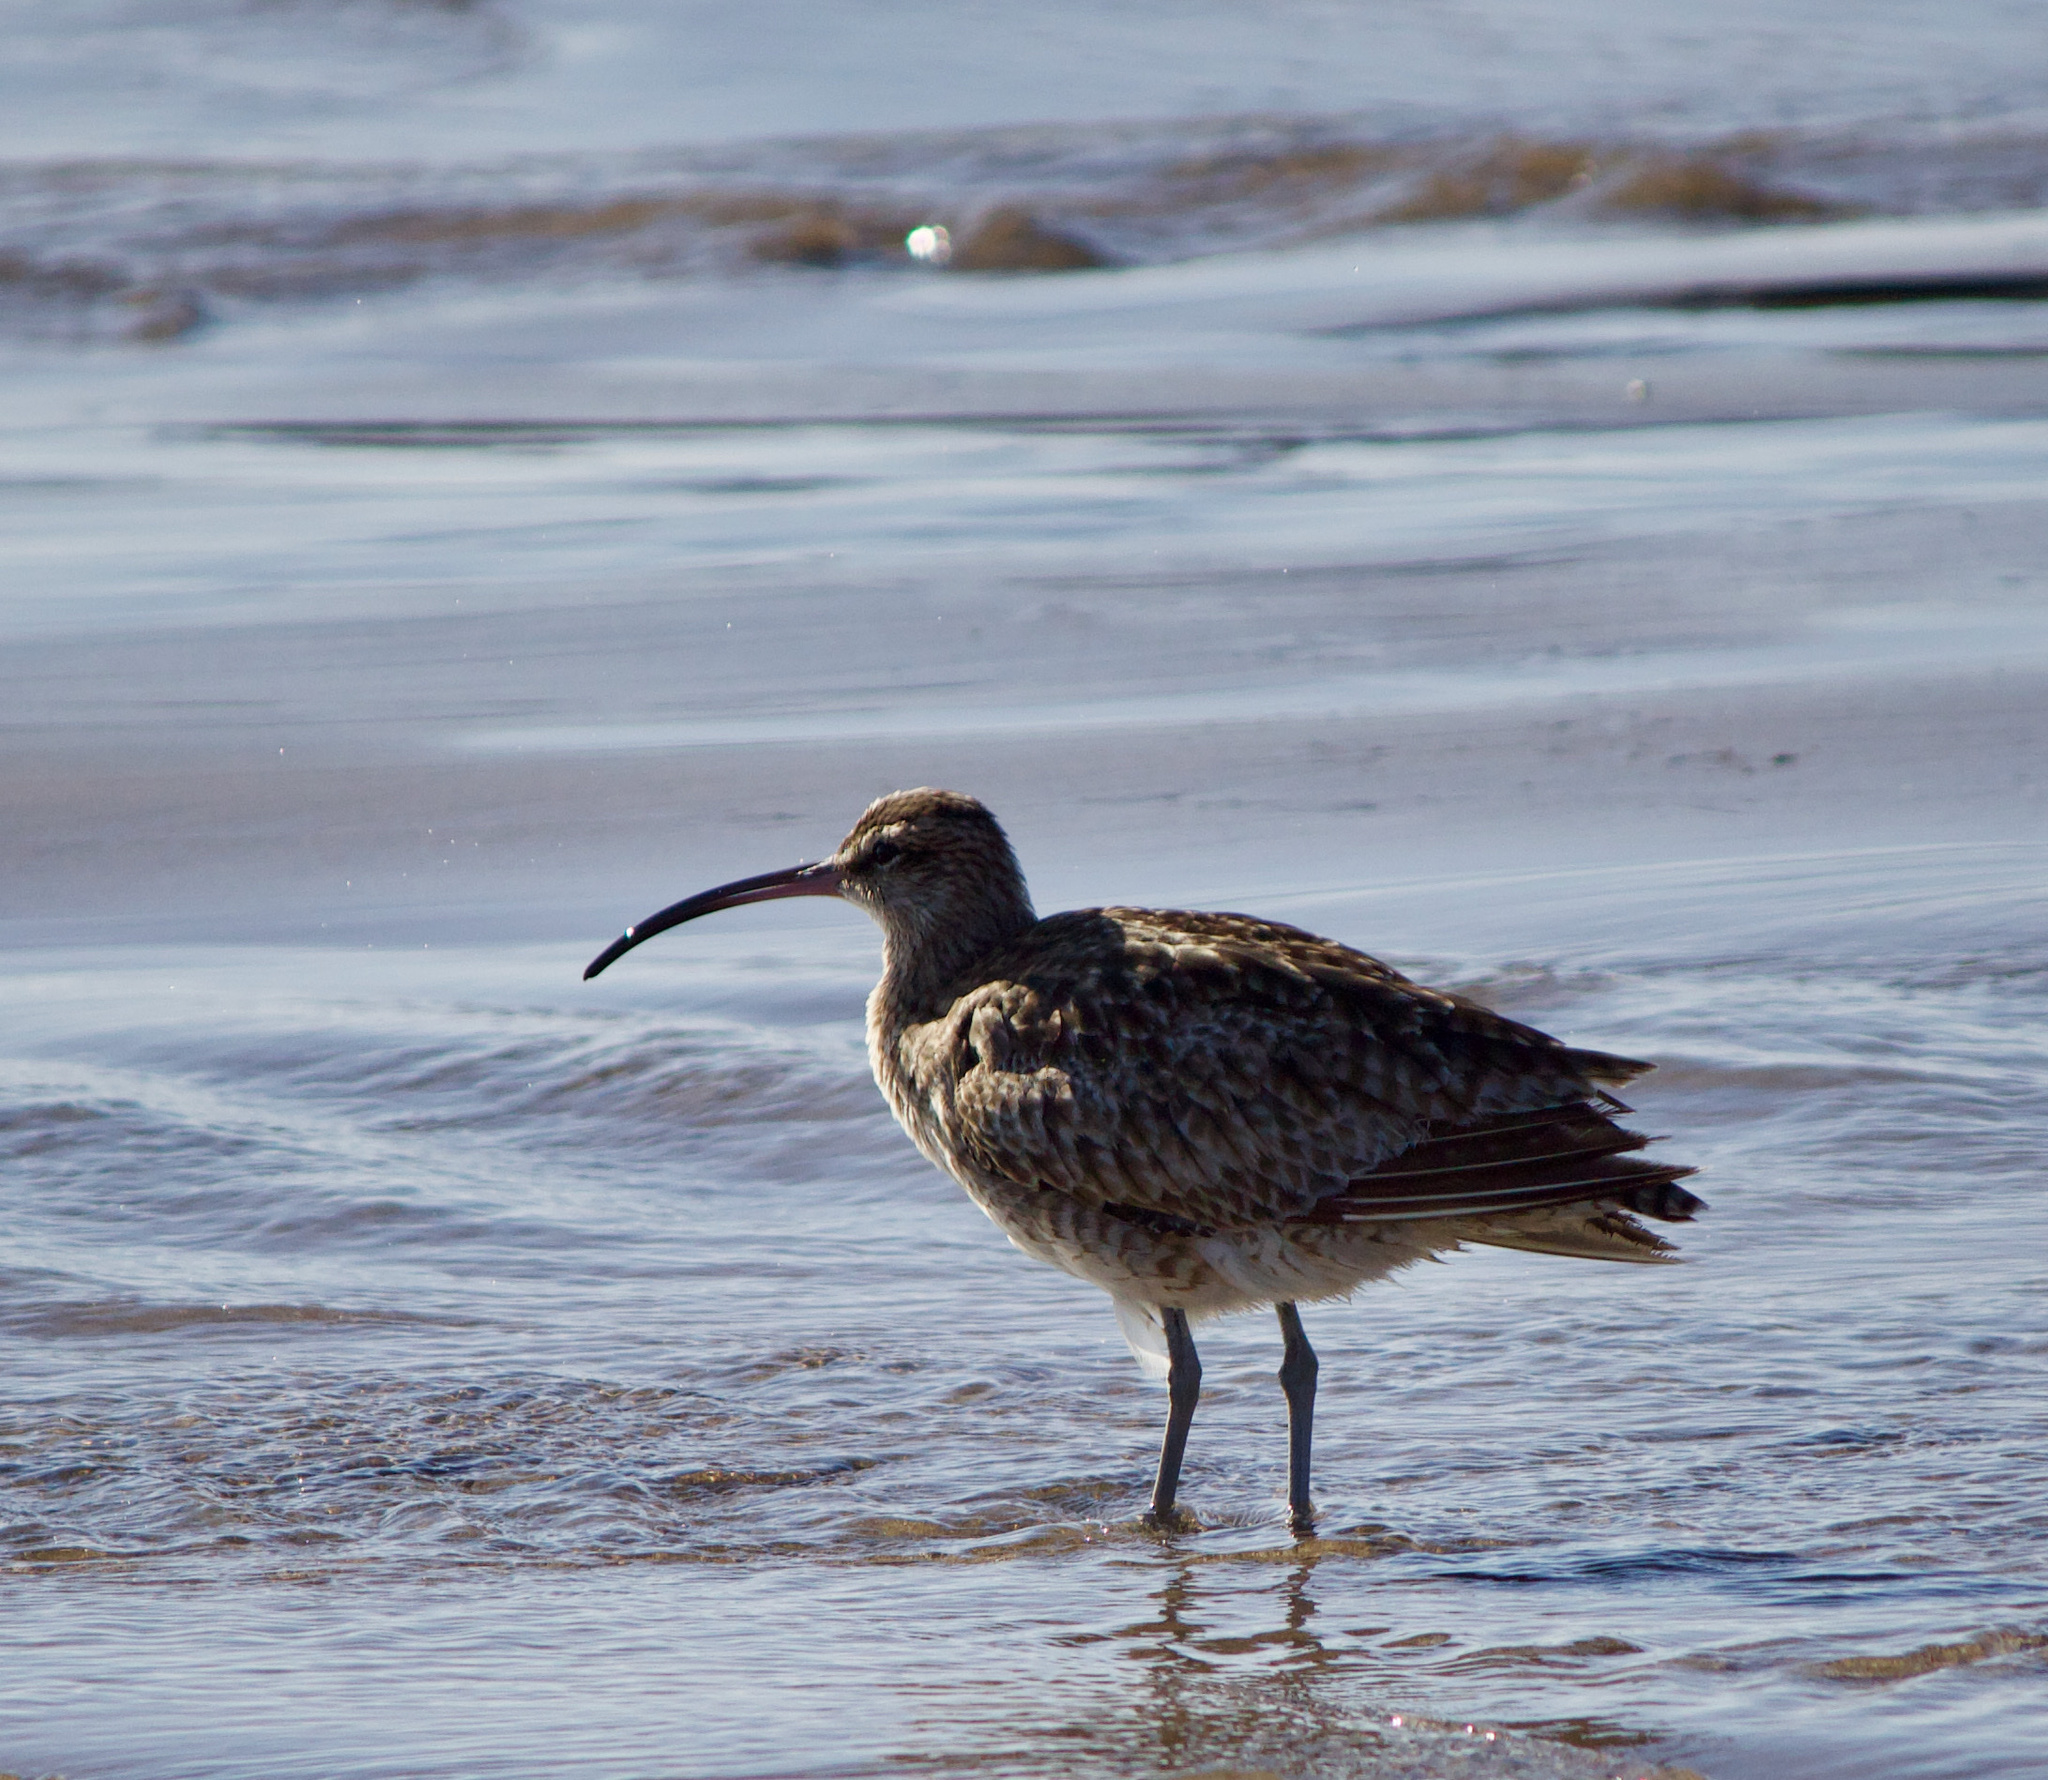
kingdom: Animalia
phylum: Chordata
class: Aves
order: Charadriiformes
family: Scolopacidae
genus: Numenius
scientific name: Numenius phaeopus
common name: Whimbrel
